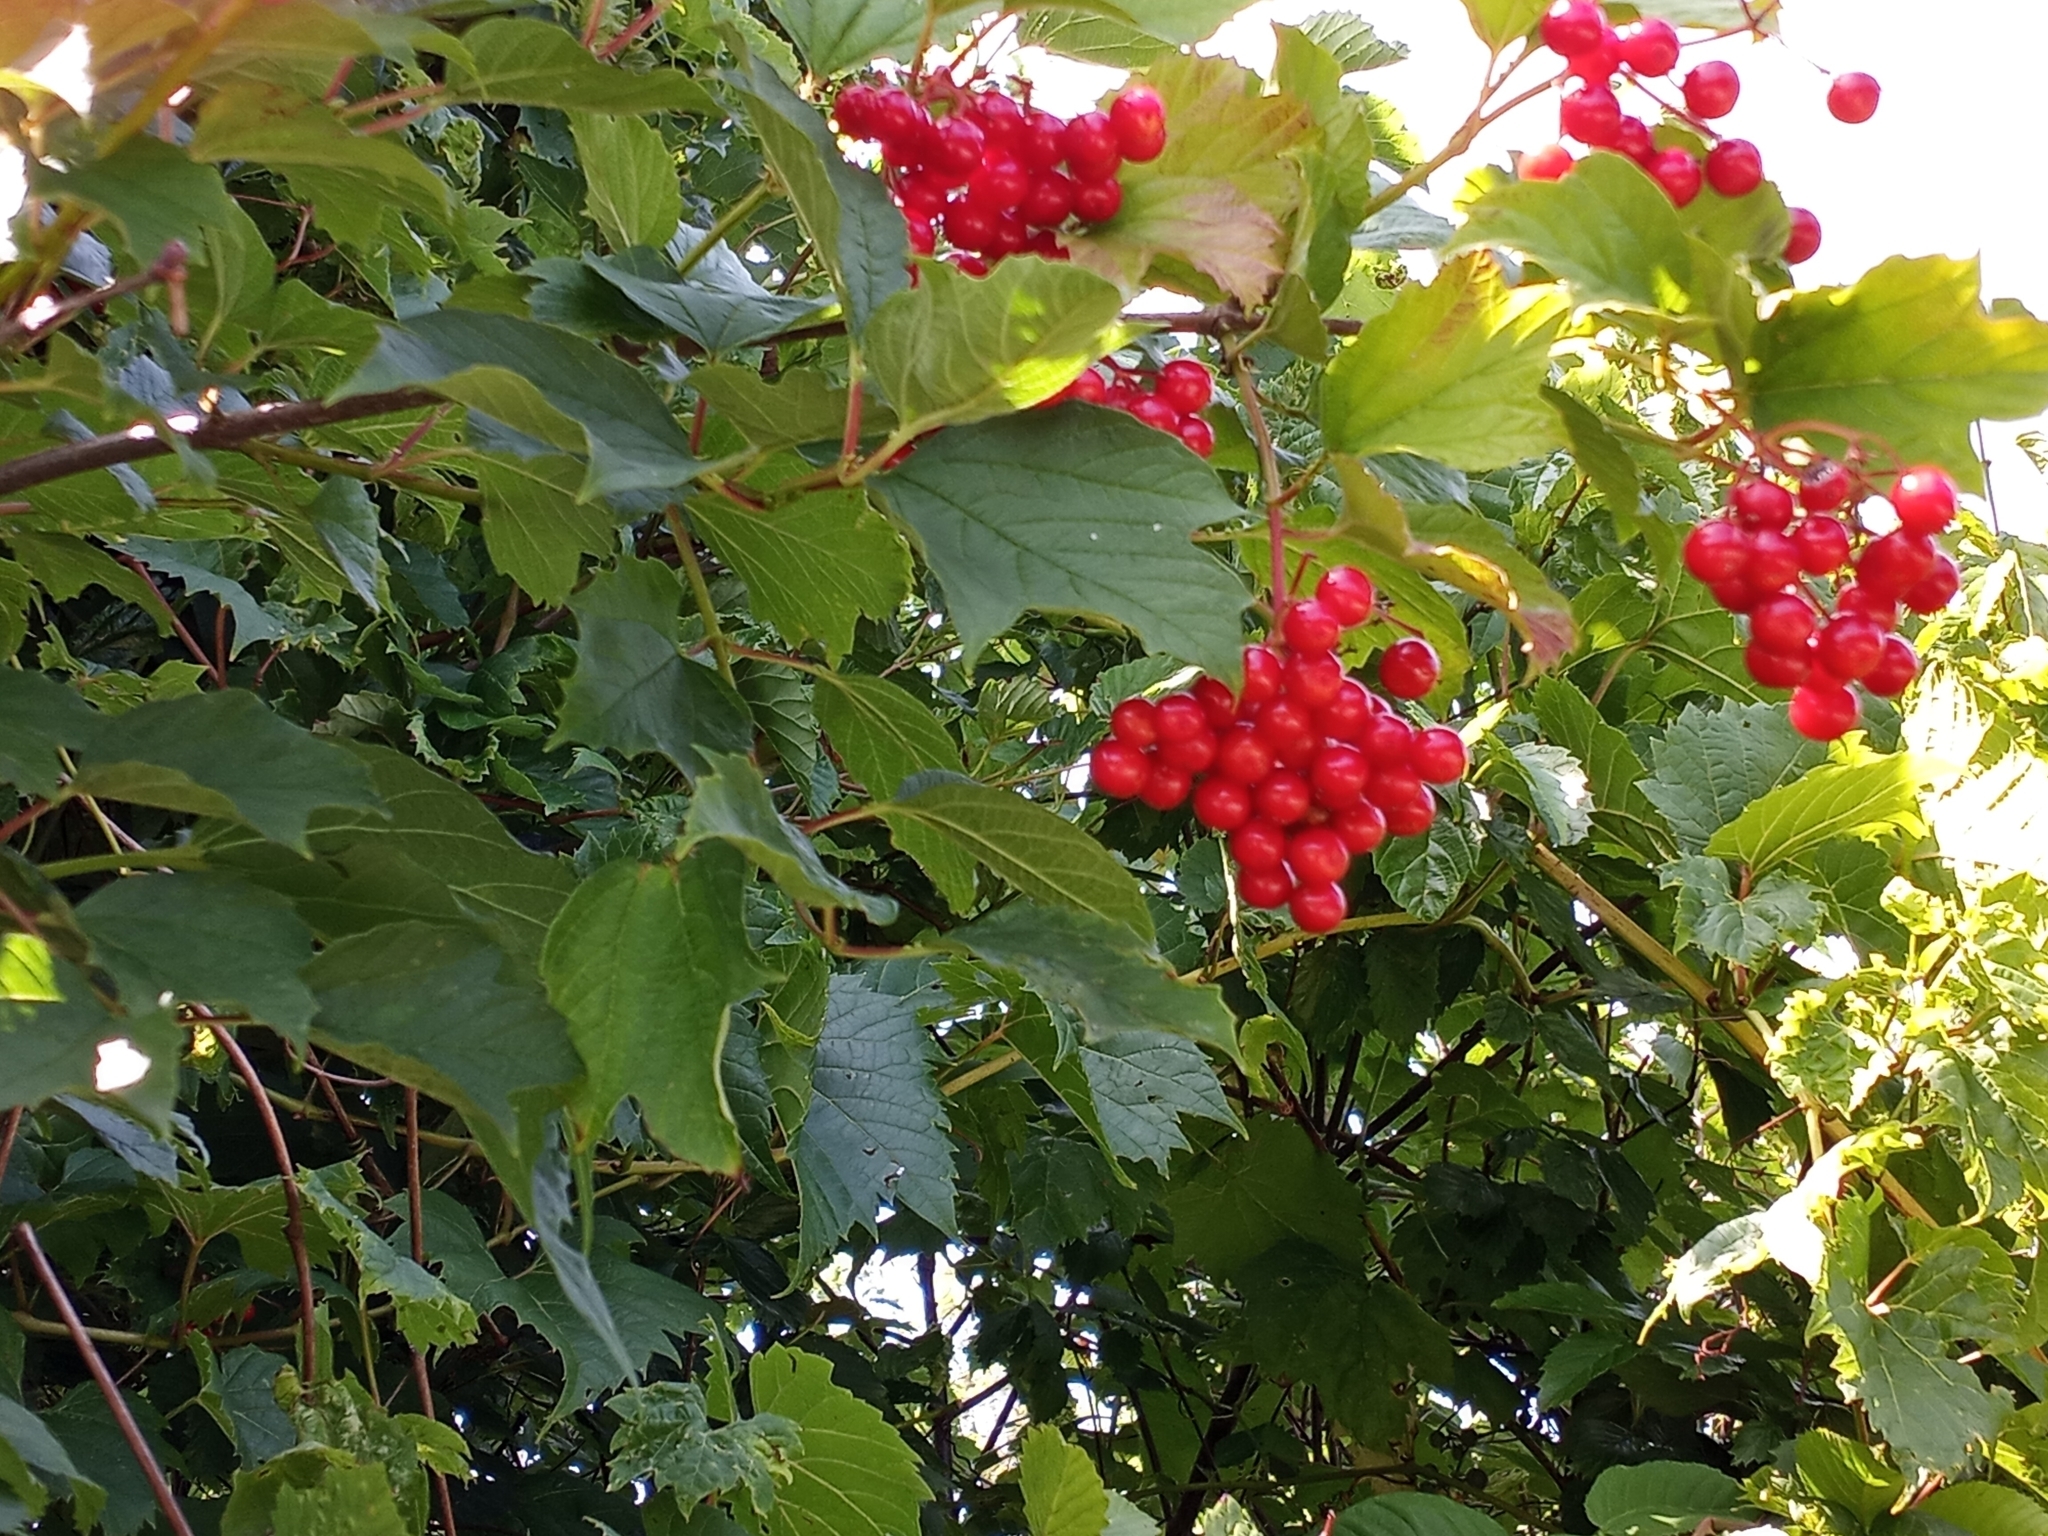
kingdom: Plantae
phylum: Tracheophyta
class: Magnoliopsida
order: Dipsacales
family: Viburnaceae
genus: Viburnum
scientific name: Viburnum opulus
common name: Guelder-rose
